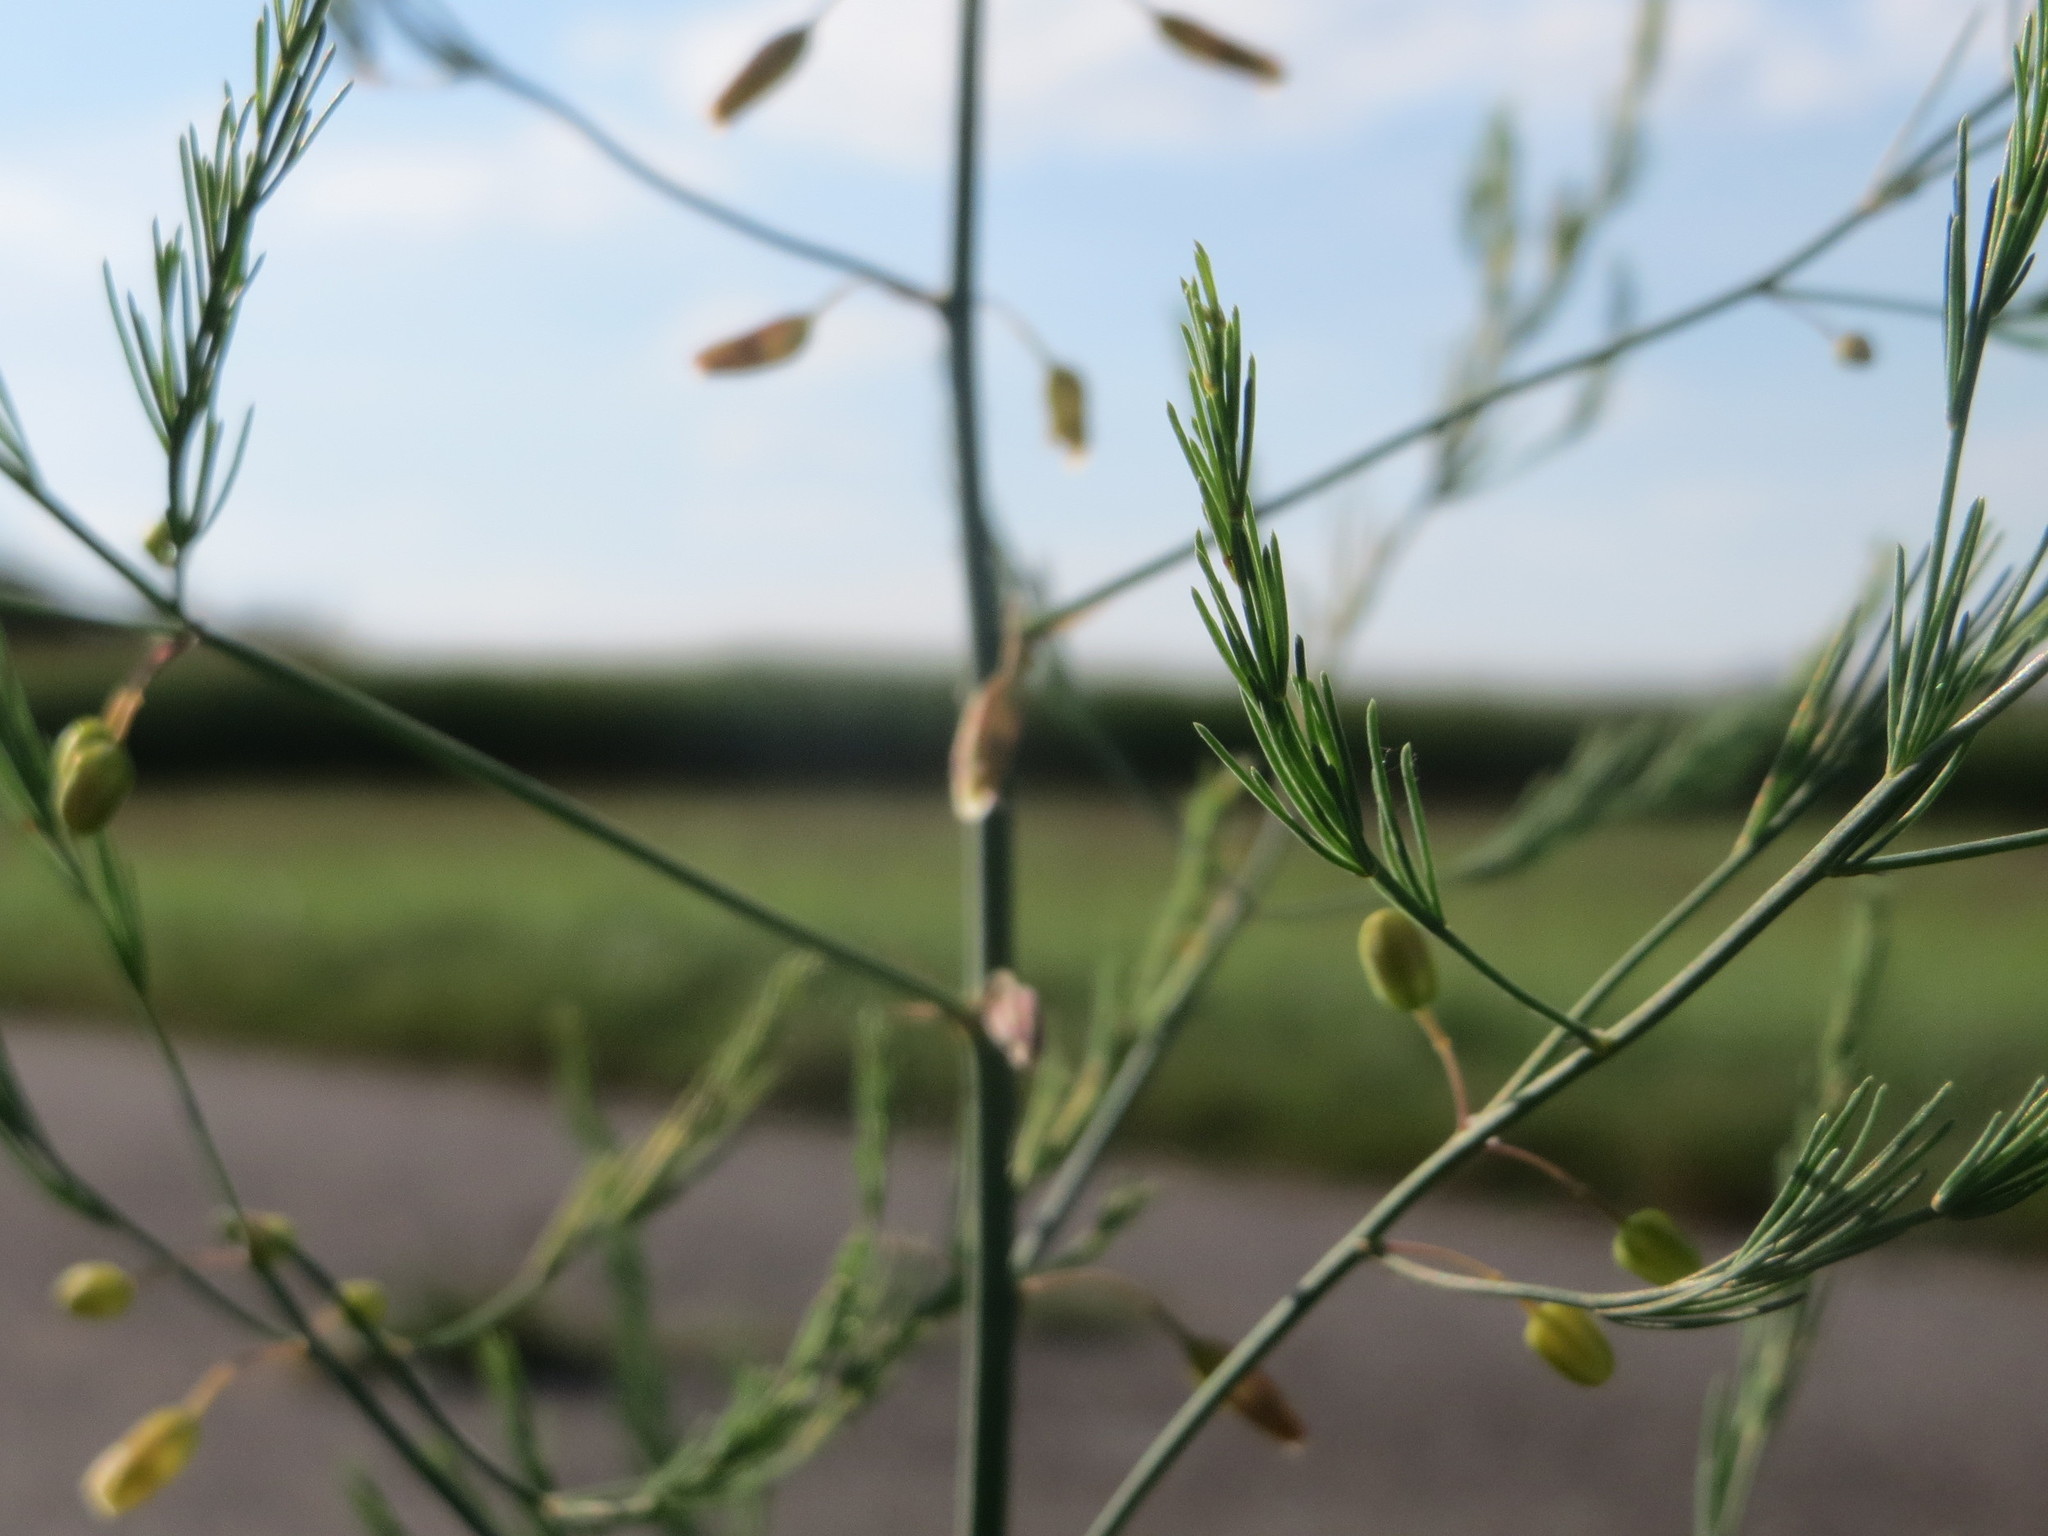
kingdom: Plantae
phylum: Tracheophyta
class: Liliopsida
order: Asparagales
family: Asparagaceae
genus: Asparagus
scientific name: Asparagus officinalis
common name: Garden asparagus
